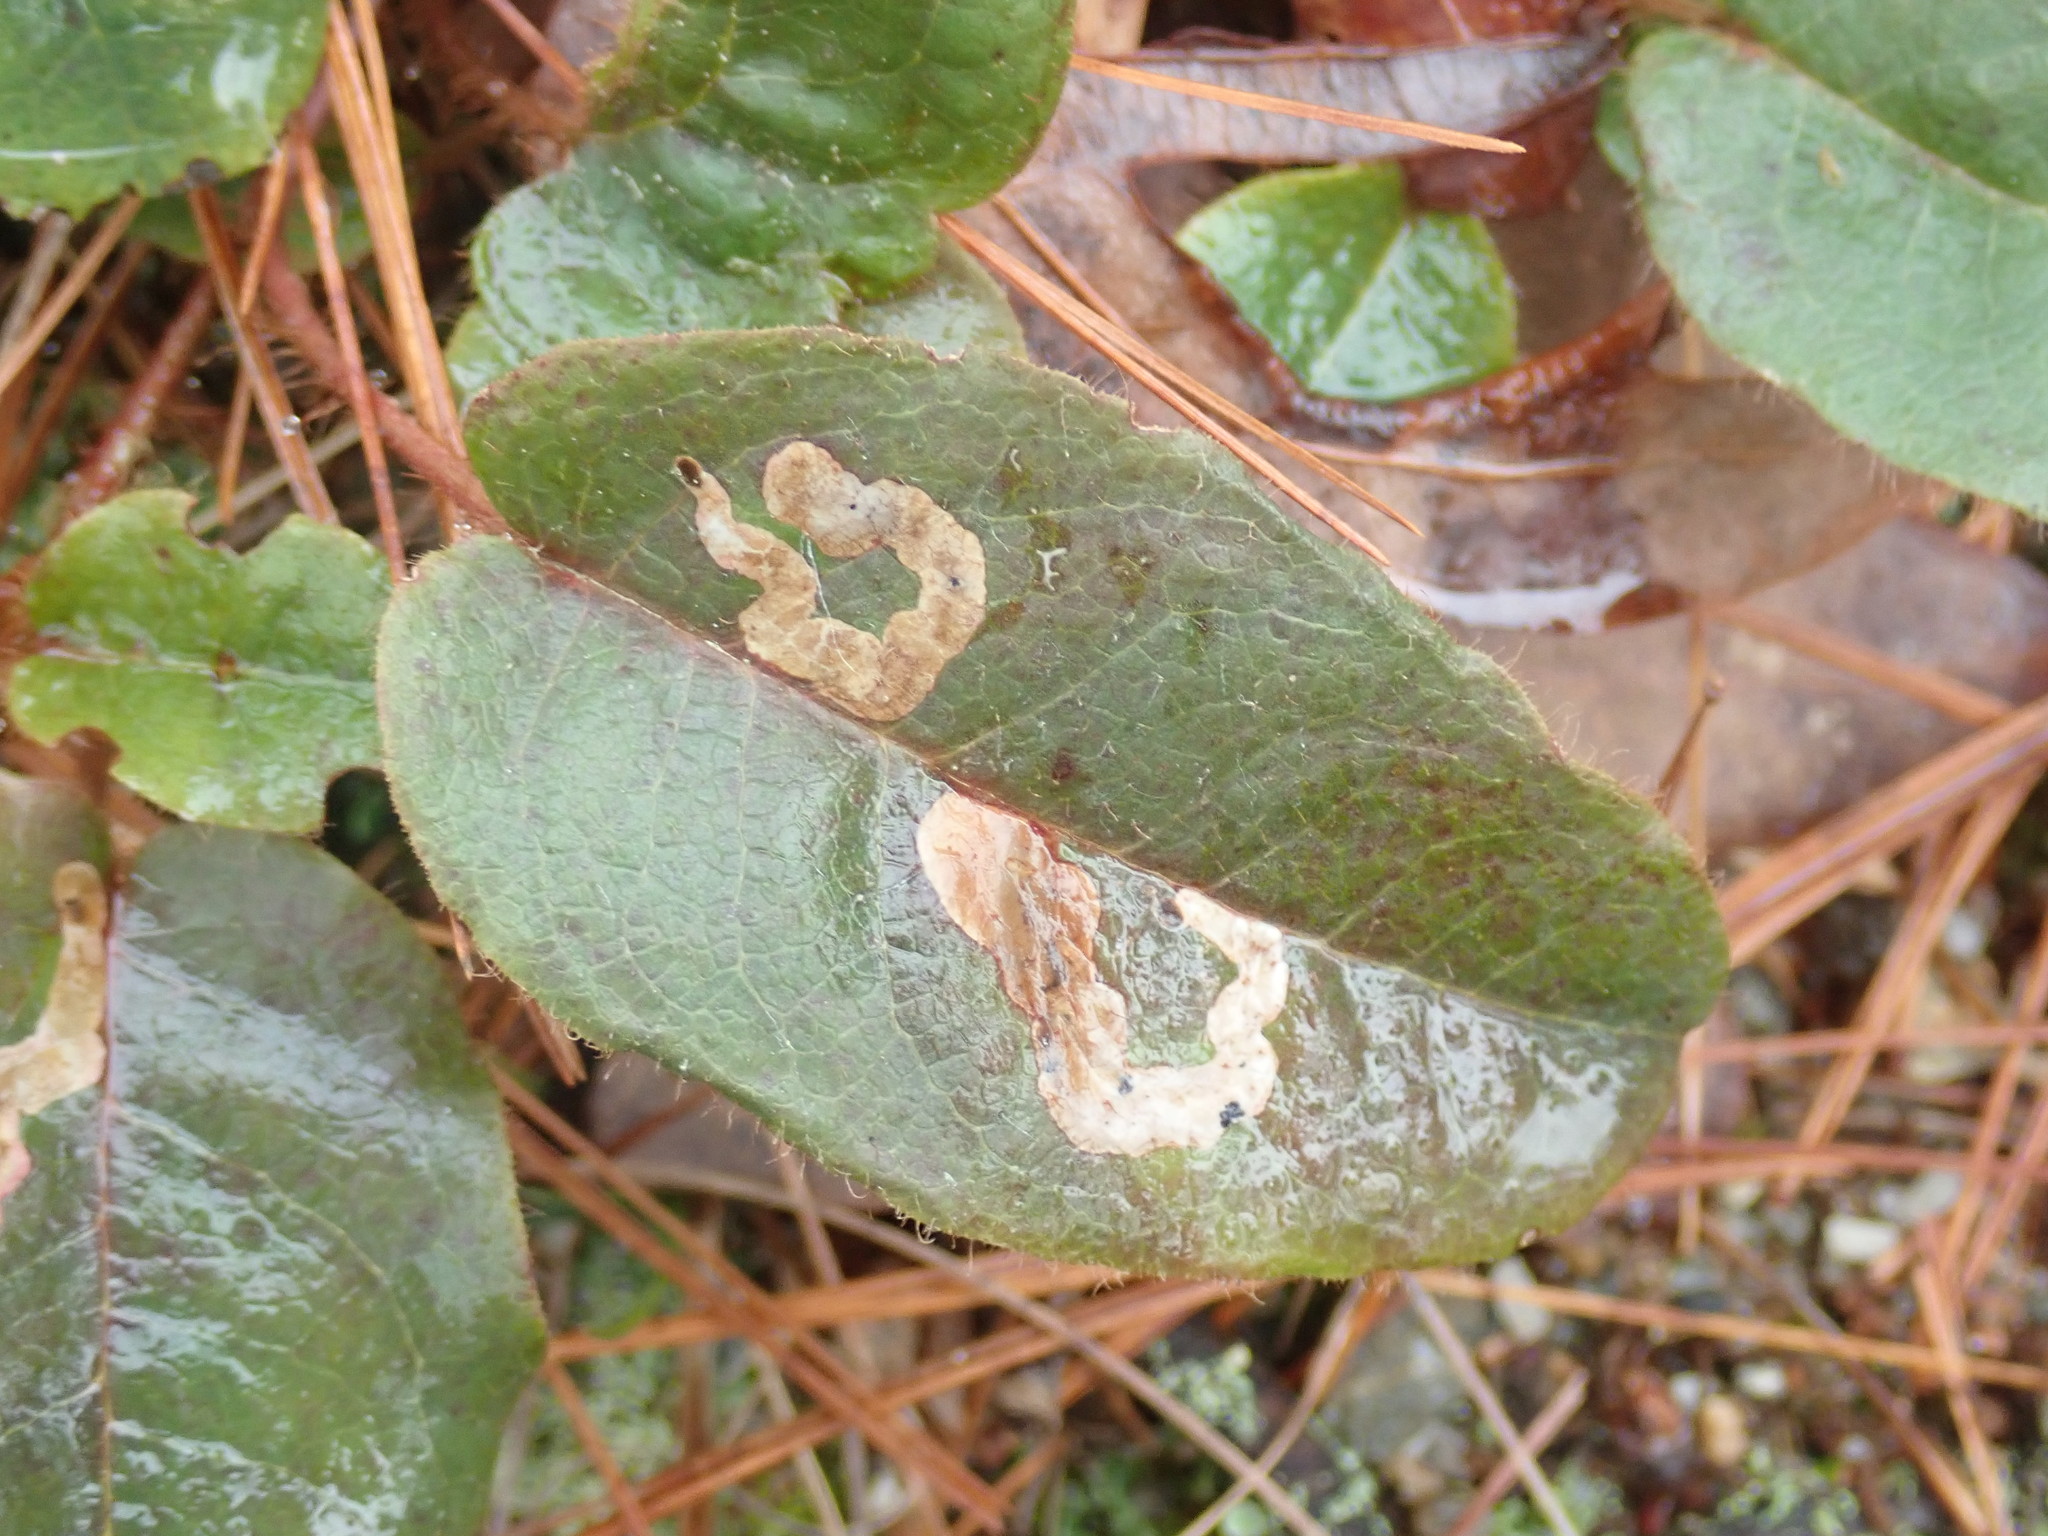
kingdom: Animalia
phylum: Arthropoda
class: Insecta
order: Coleoptera
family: Buprestidae
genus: Brachys
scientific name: Brachys
